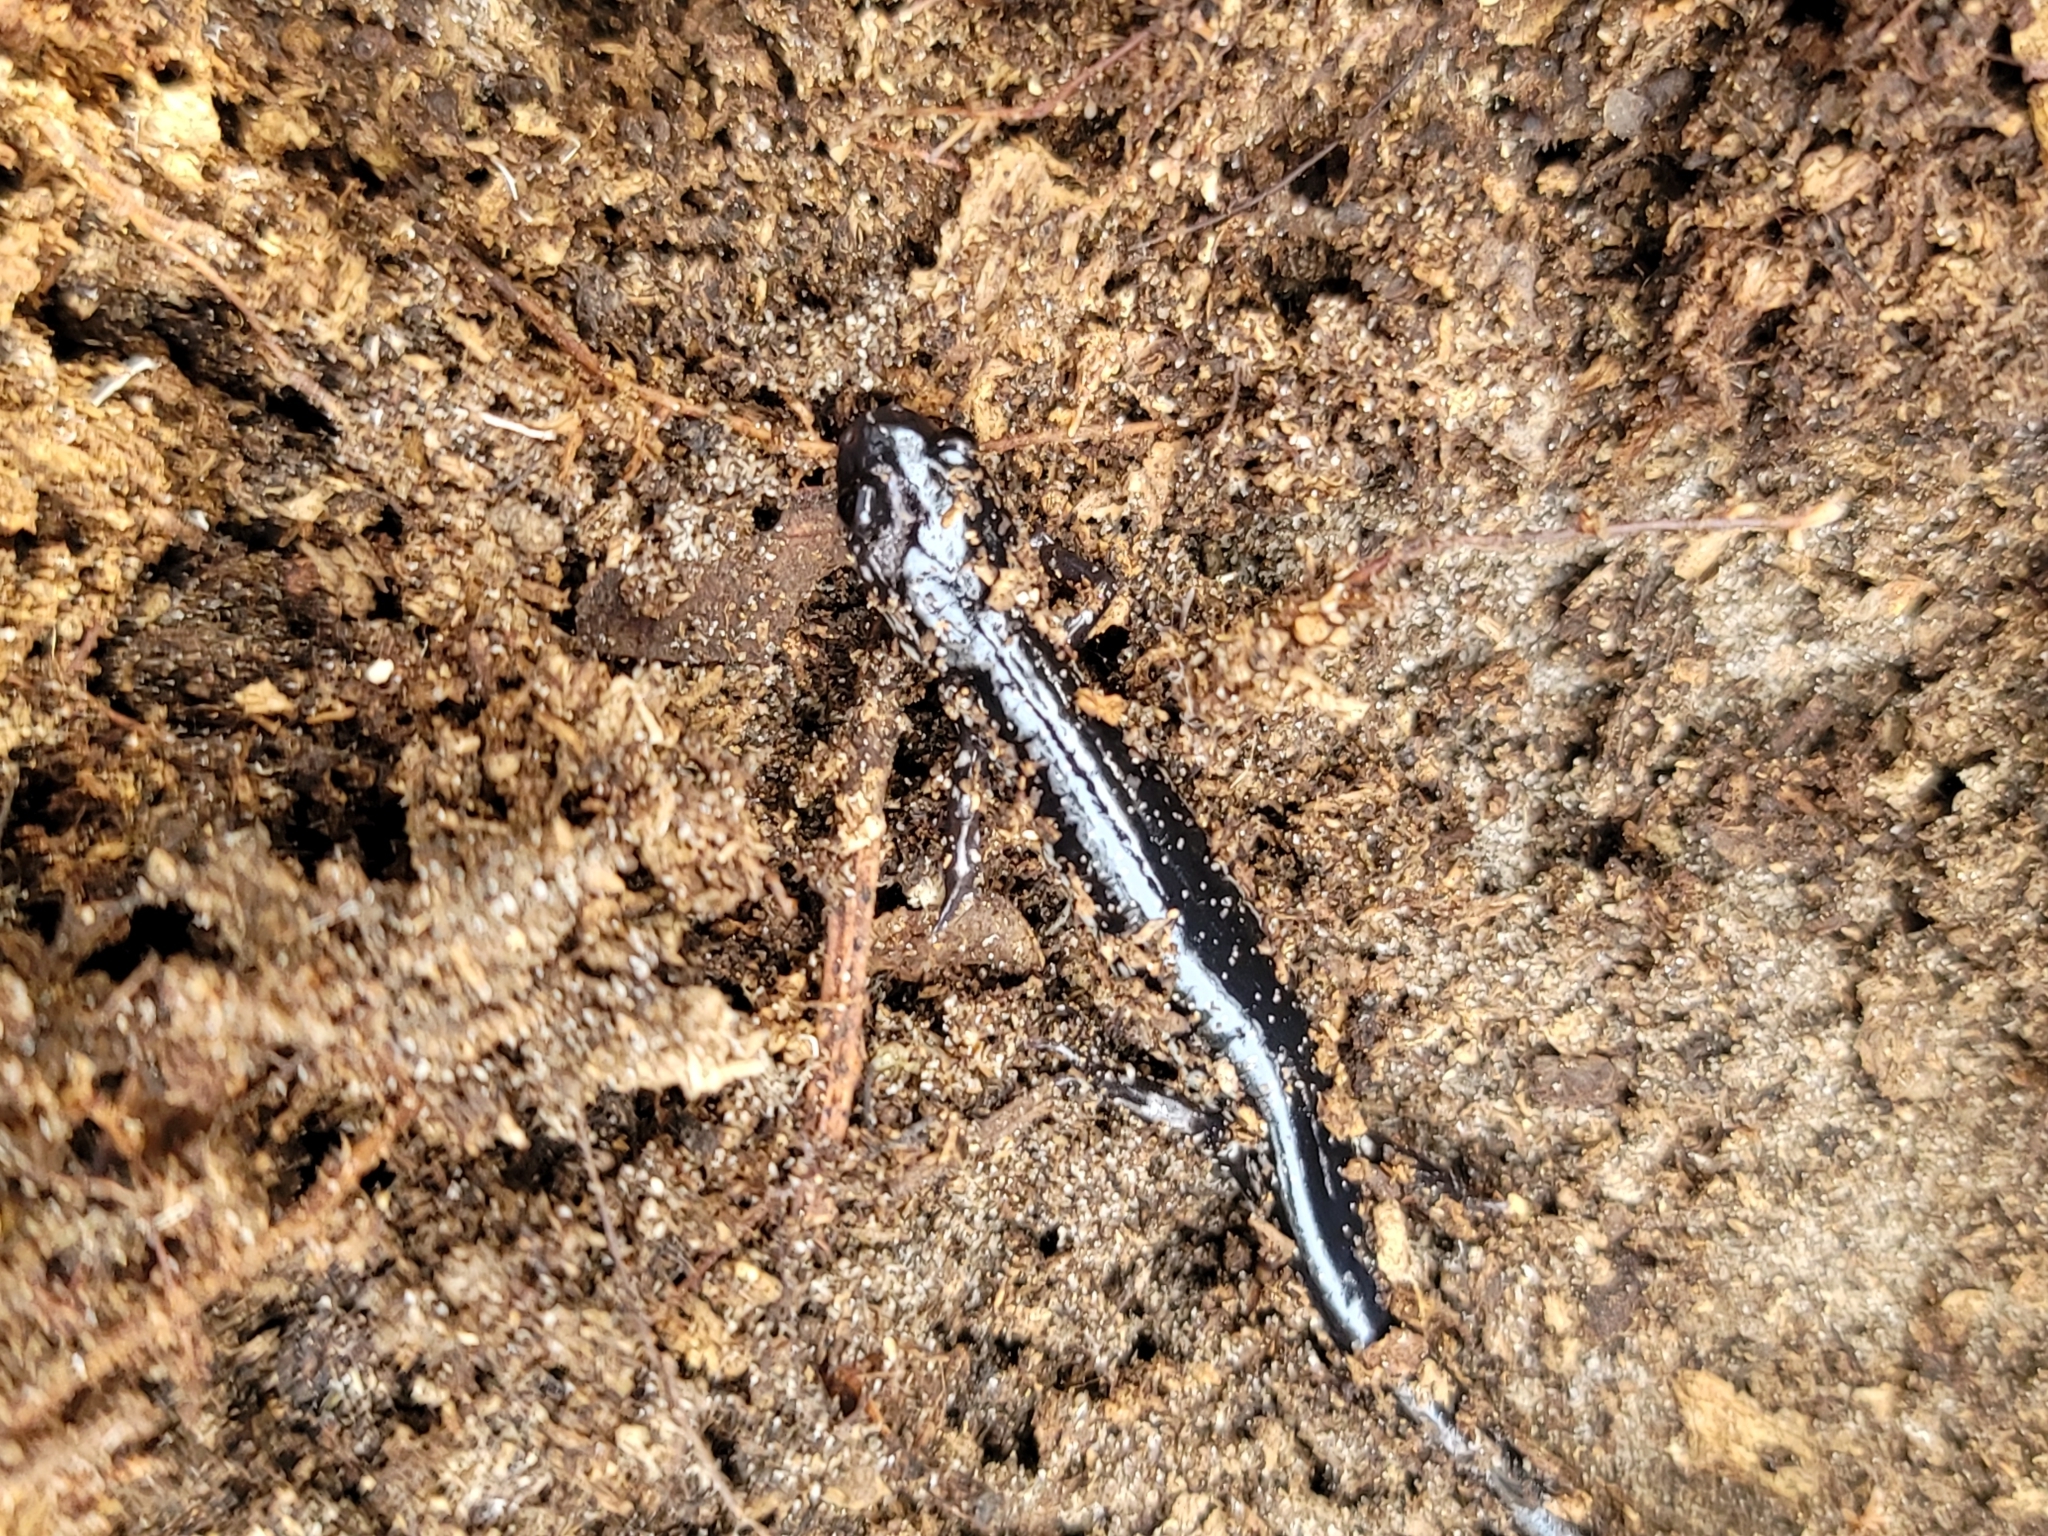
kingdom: Animalia
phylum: Chordata
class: Amphibia
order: Caudata
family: Plethodontidae
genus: Plethodon
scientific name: Plethodon chlorobryonis
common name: Atlantic coast slimy salamander
